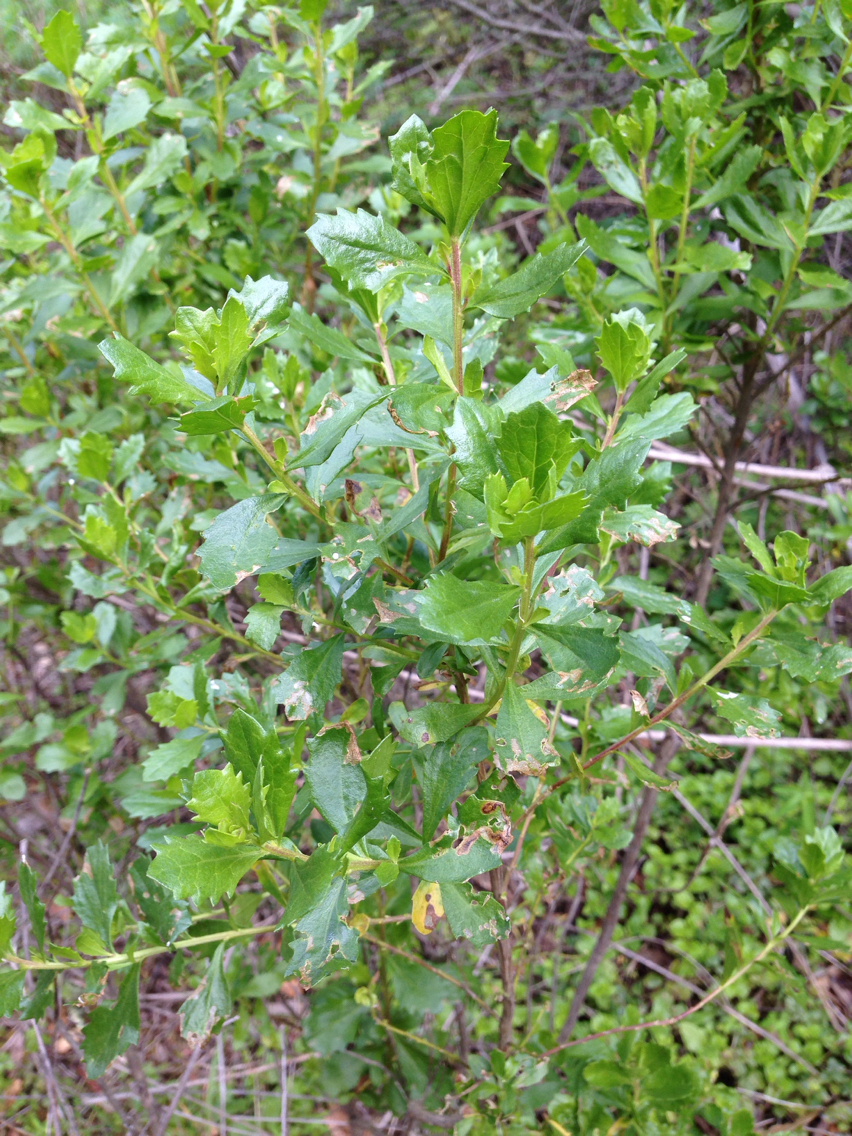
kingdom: Plantae
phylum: Tracheophyta
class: Magnoliopsida
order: Asterales
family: Asteraceae
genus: Baccharis
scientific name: Baccharis pilularis
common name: Coyotebrush
